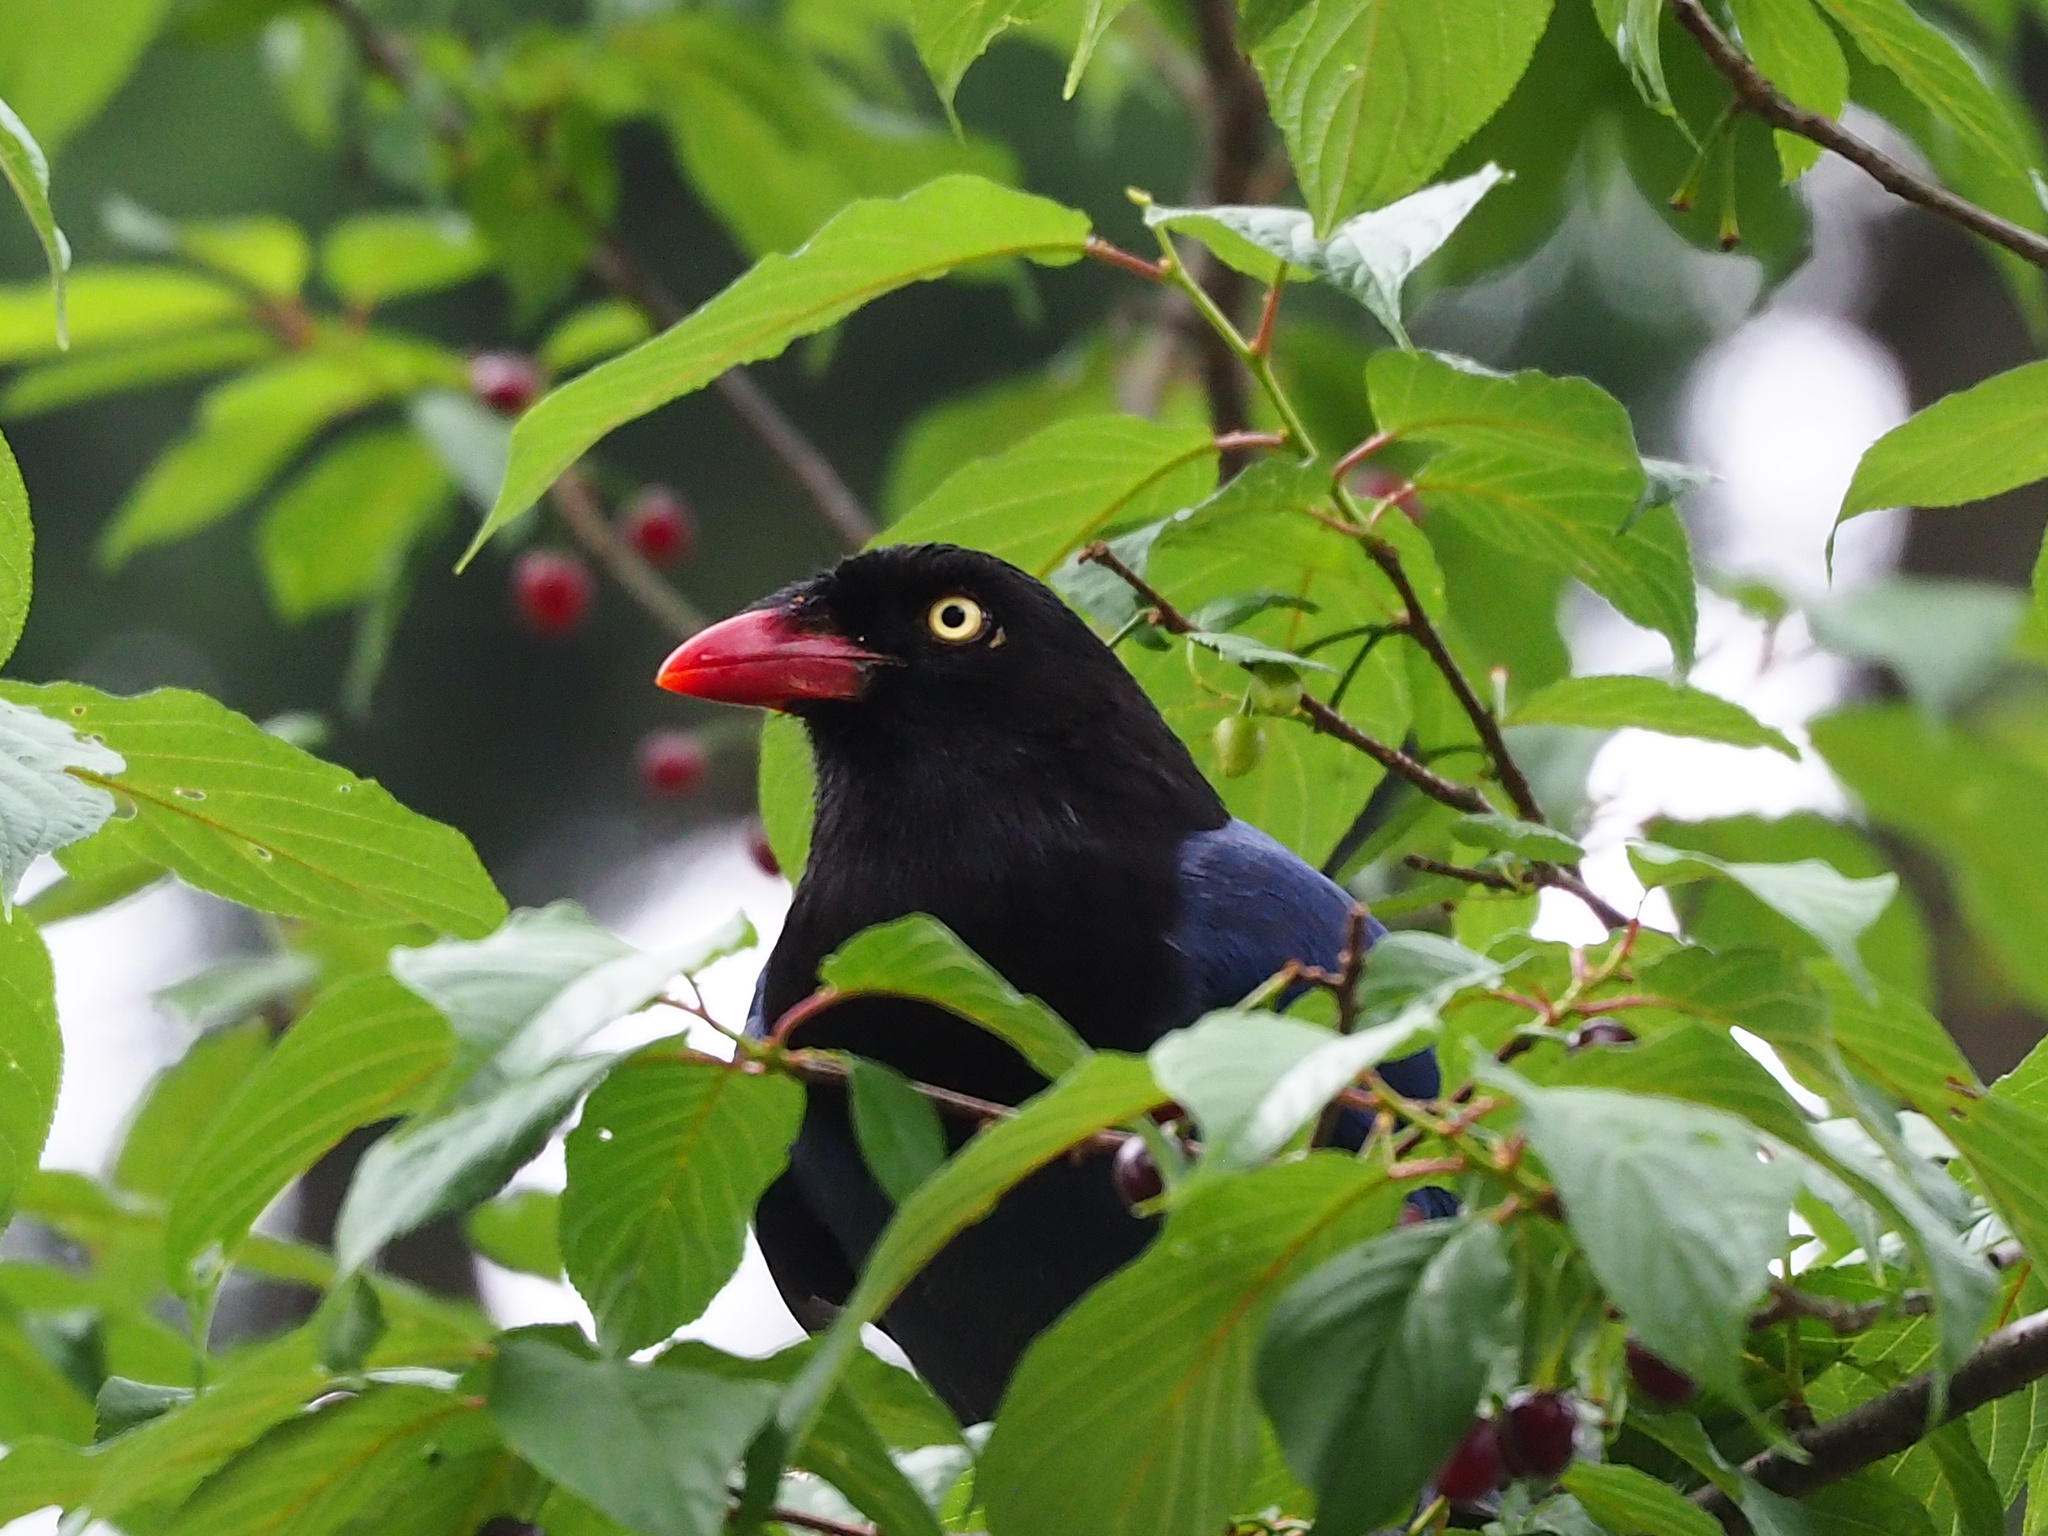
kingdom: Animalia
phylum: Chordata
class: Aves
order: Passeriformes
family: Corvidae
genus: Urocissa
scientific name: Urocissa caerulea
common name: Taiwan blue magpie
